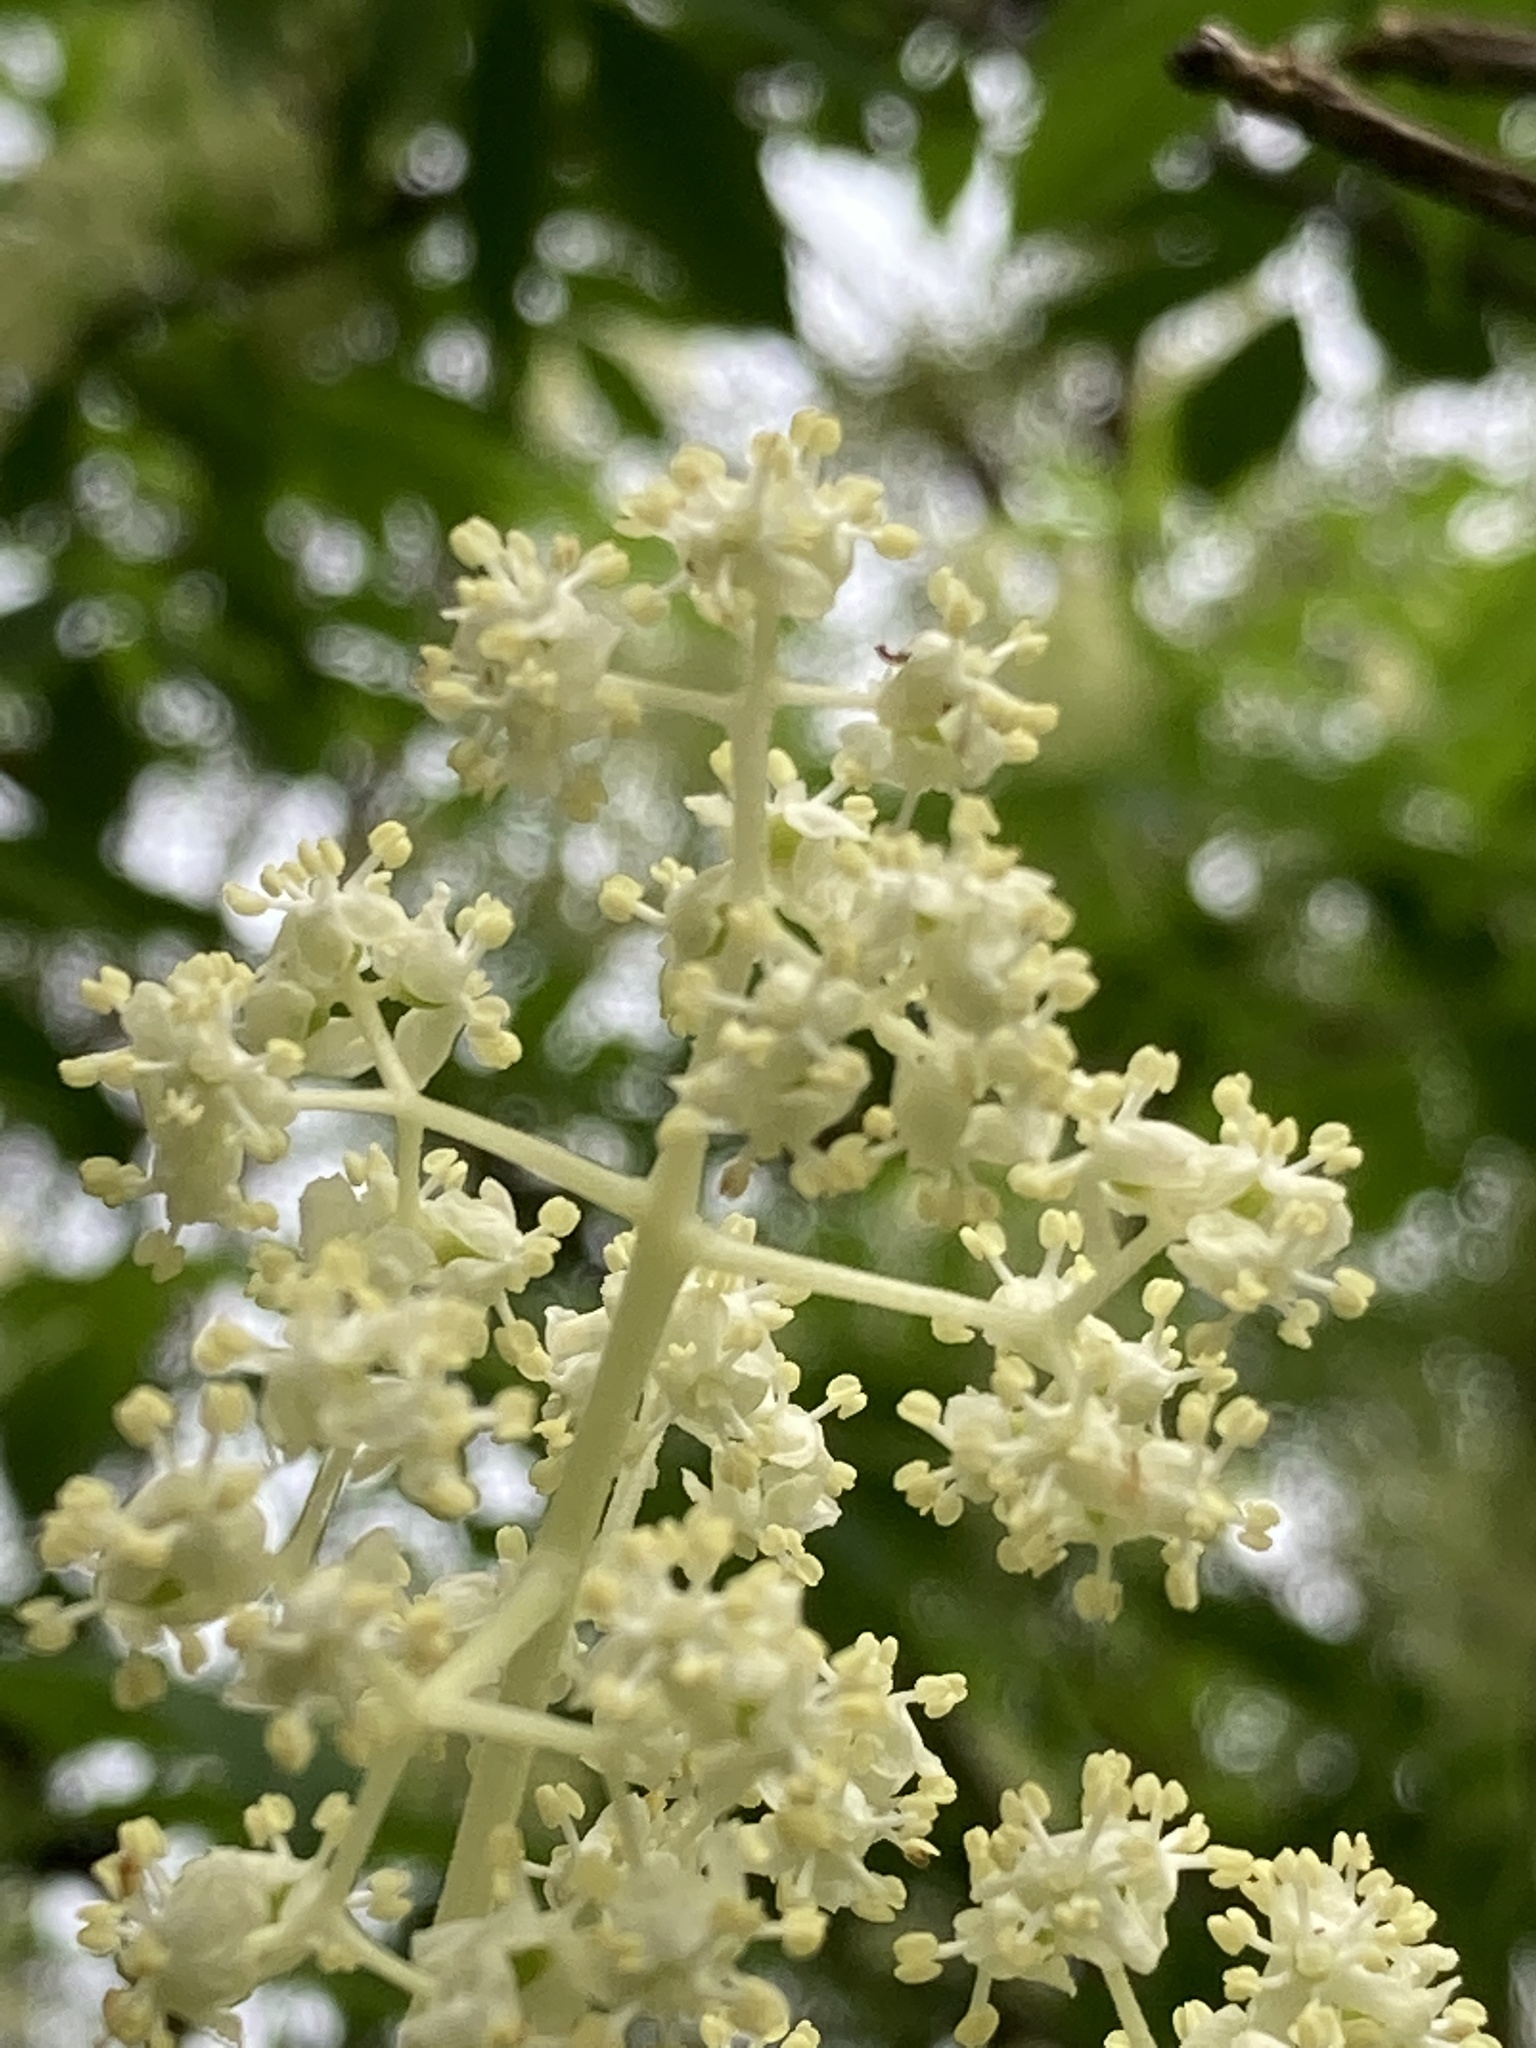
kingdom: Plantae
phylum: Tracheophyta
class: Magnoliopsida
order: Dipsacales
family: Viburnaceae
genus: Sambucus
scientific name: Sambucus racemosa
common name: Red-berried elder
